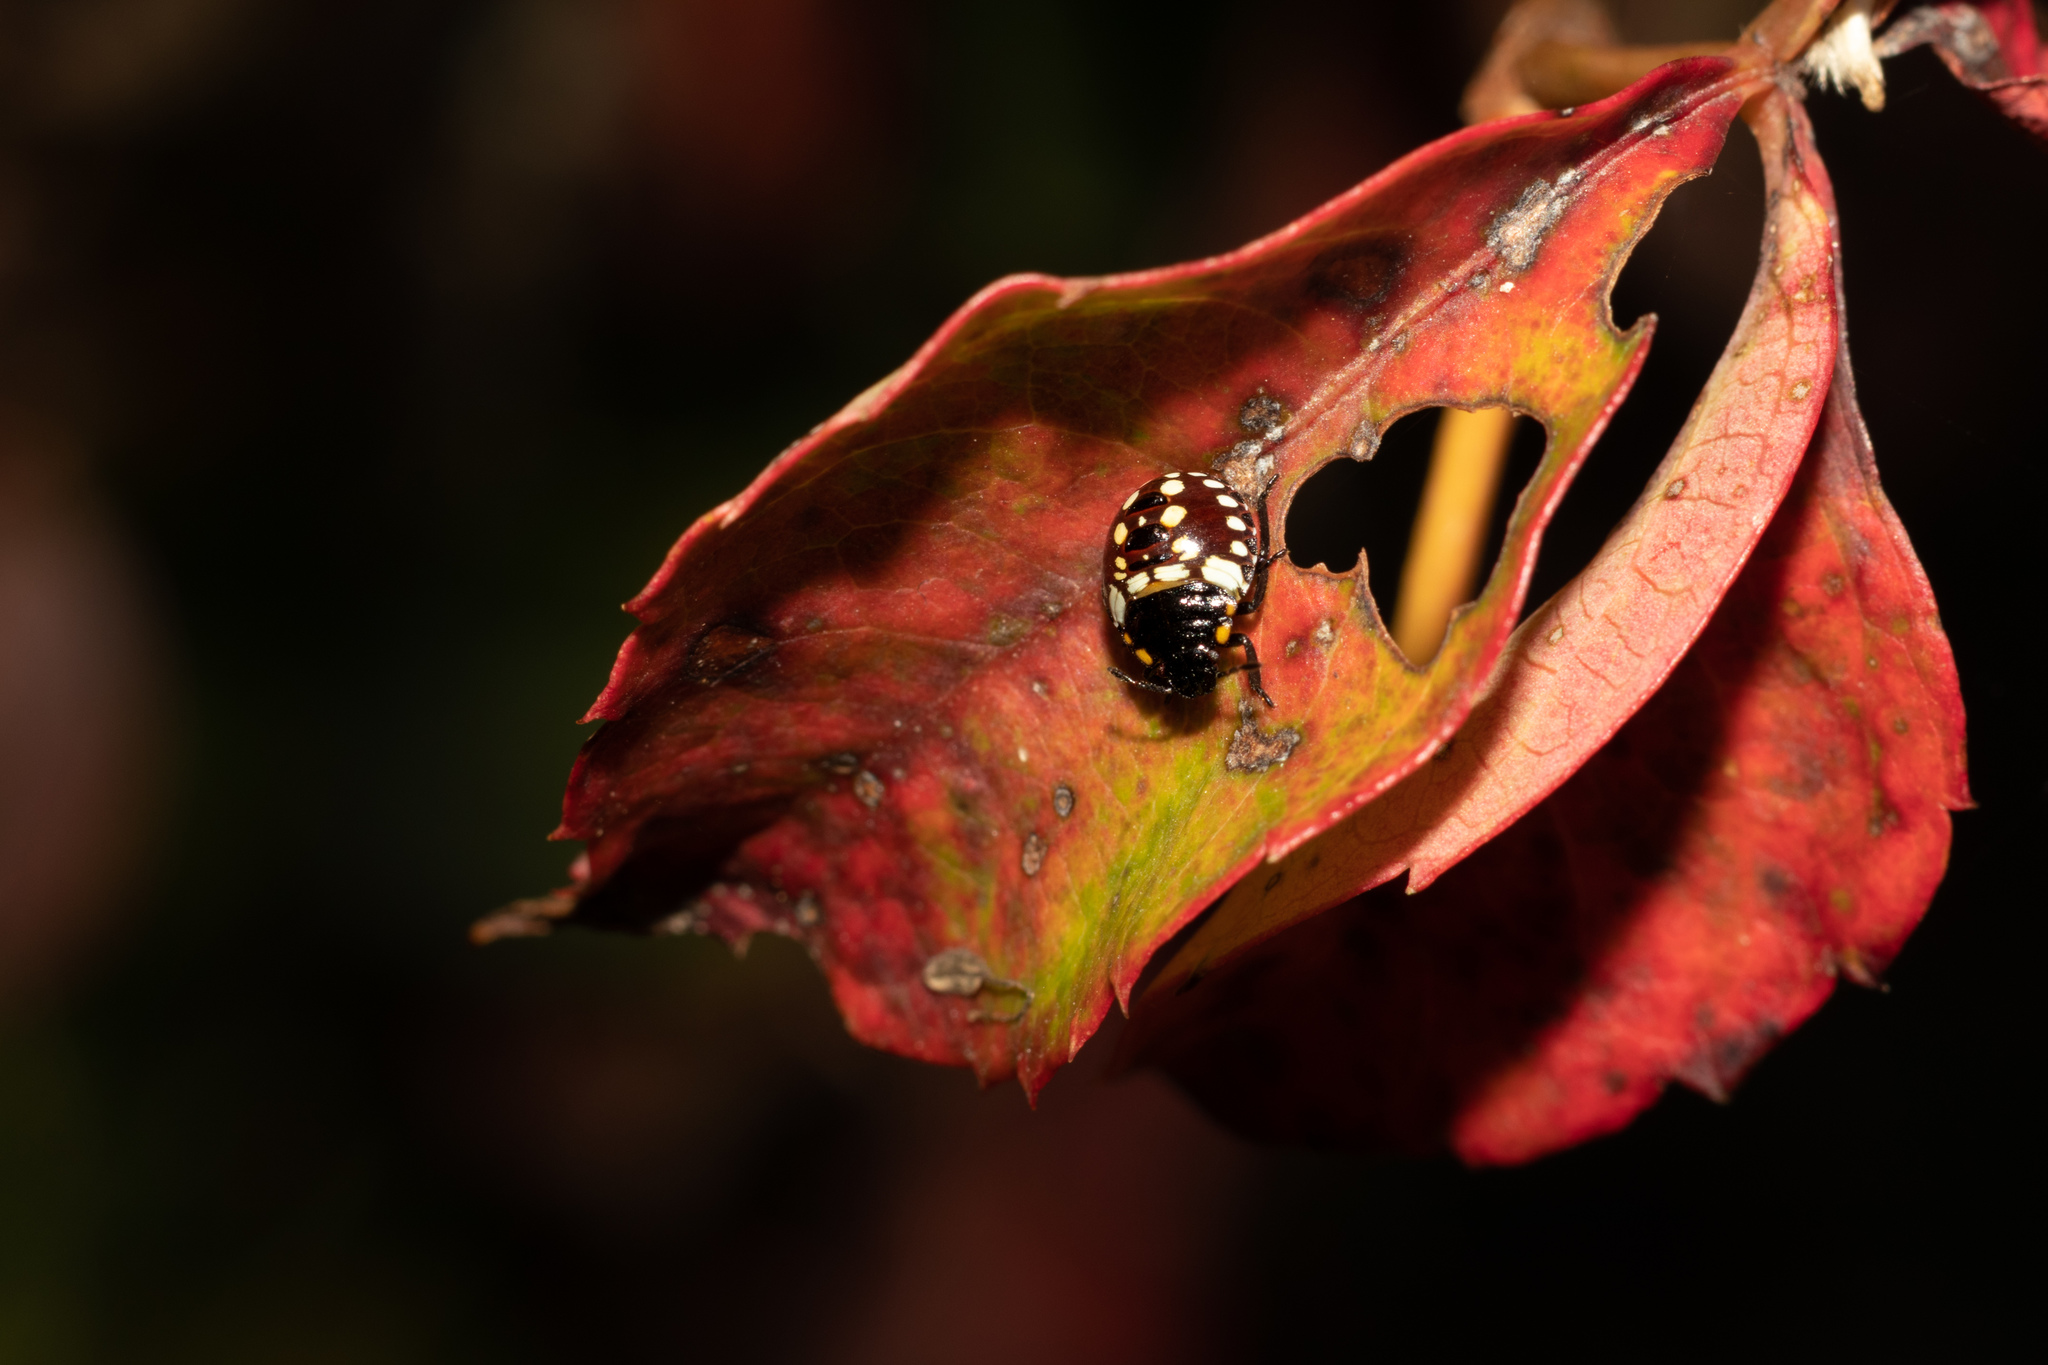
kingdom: Animalia
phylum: Arthropoda
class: Insecta
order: Hemiptera
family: Pentatomidae
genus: Nezara
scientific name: Nezara viridula
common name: Southern green stink bug
